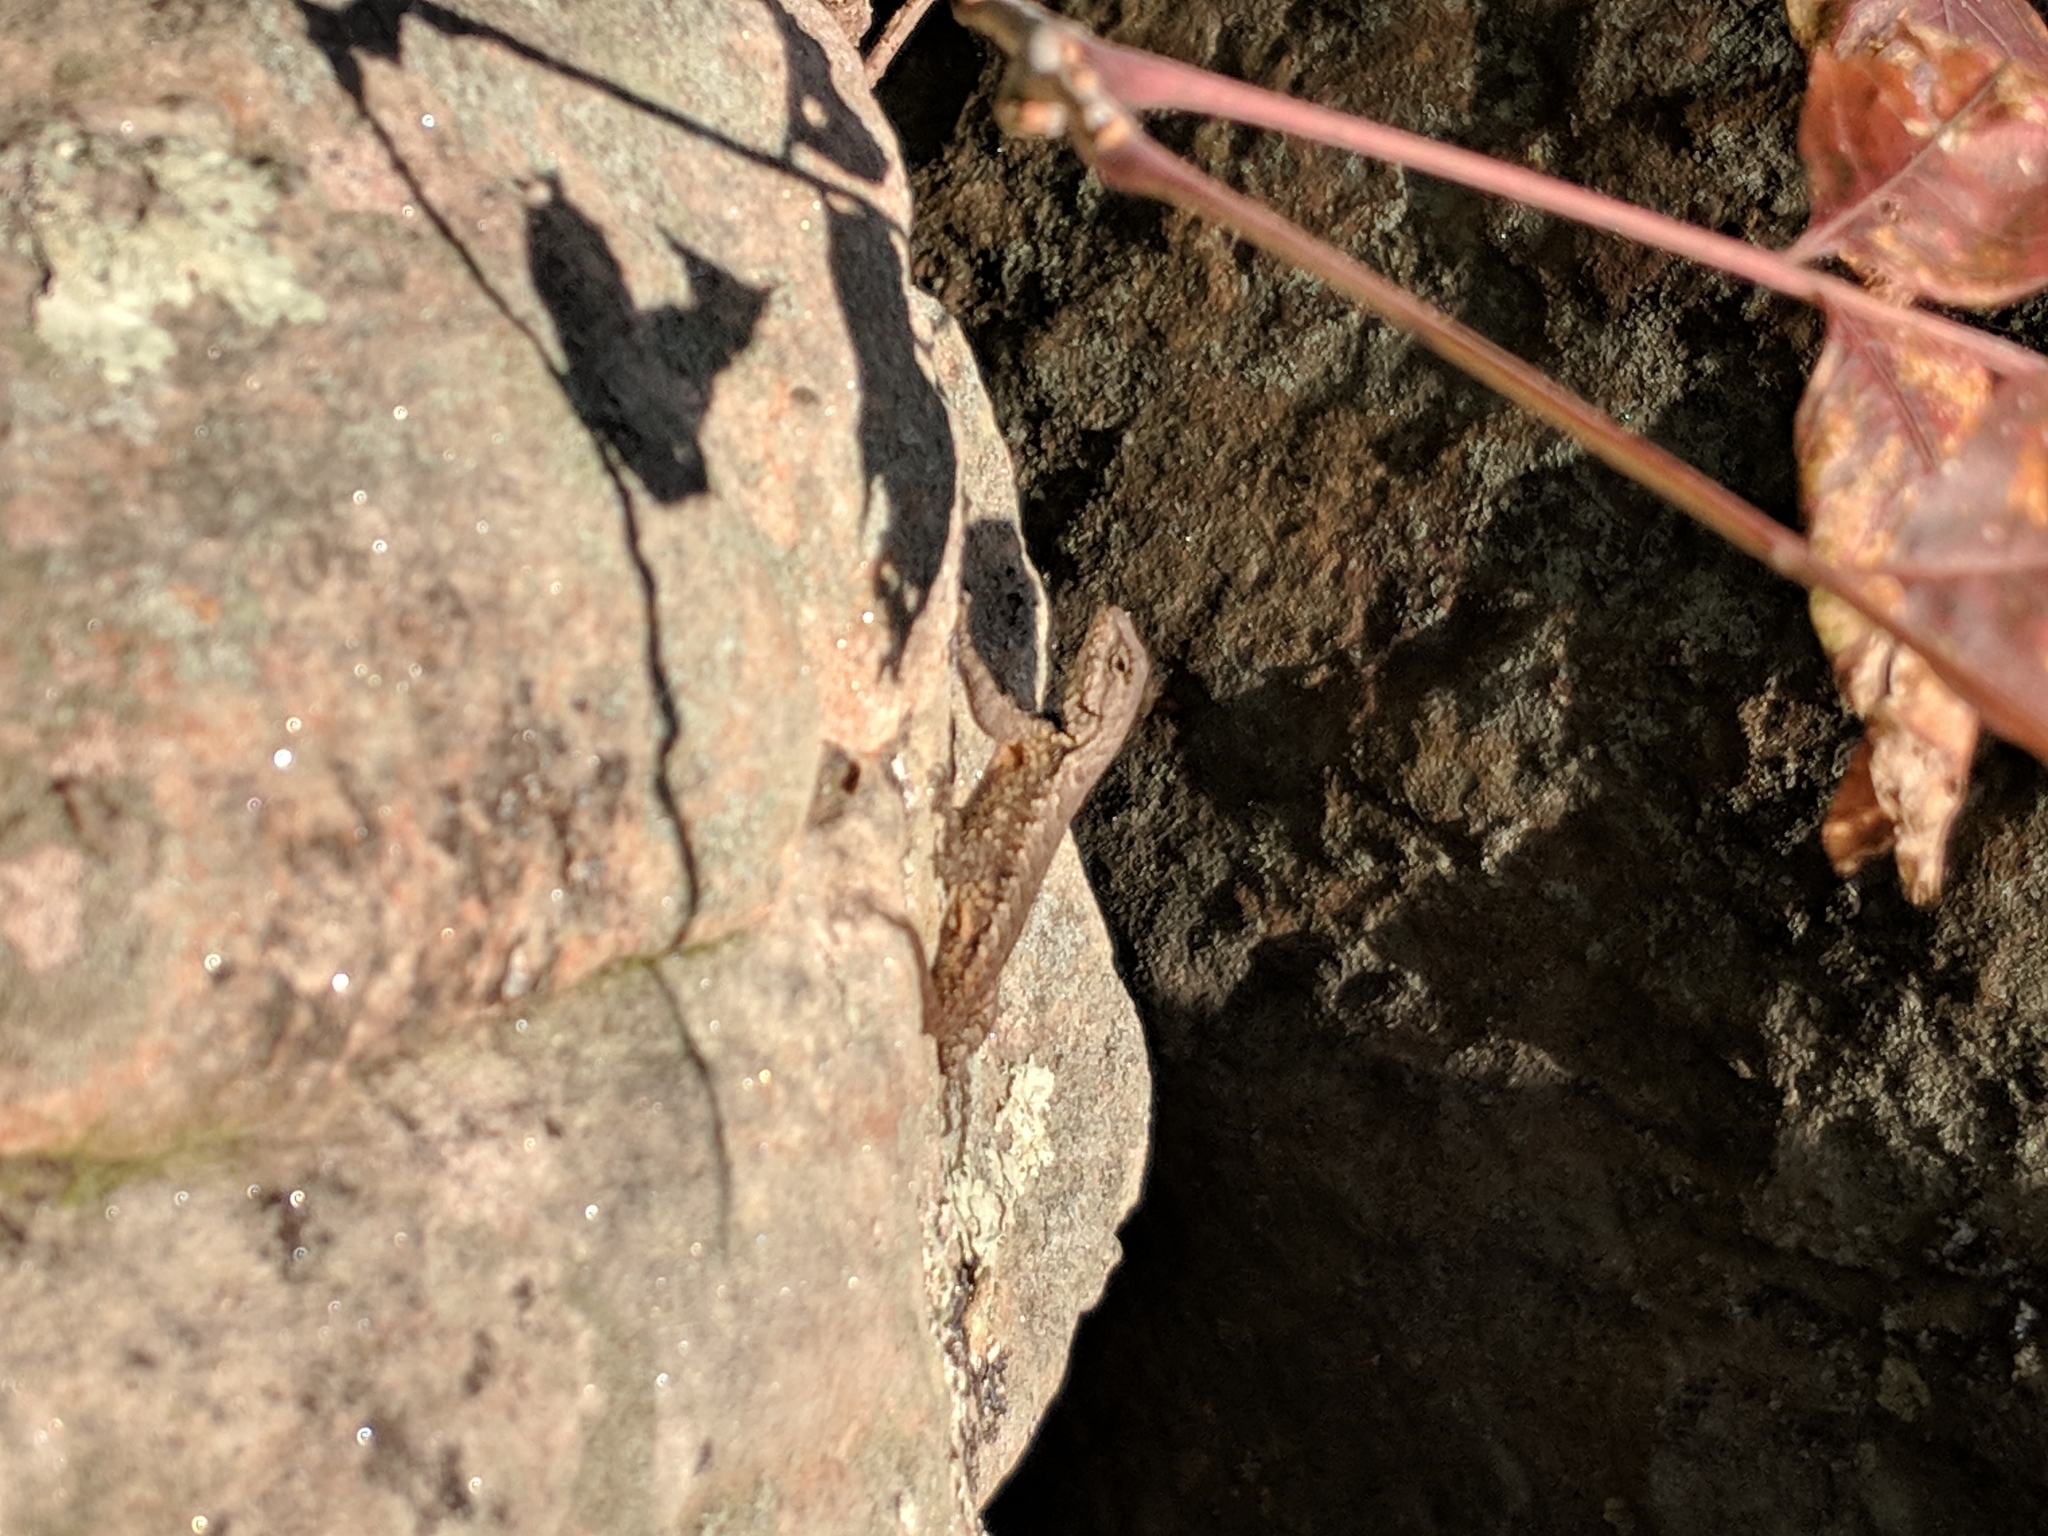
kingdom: Animalia
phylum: Chordata
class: Squamata
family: Phrynosomatidae
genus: Sceloporus
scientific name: Sceloporus undulatus
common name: Eastern fence lizard
